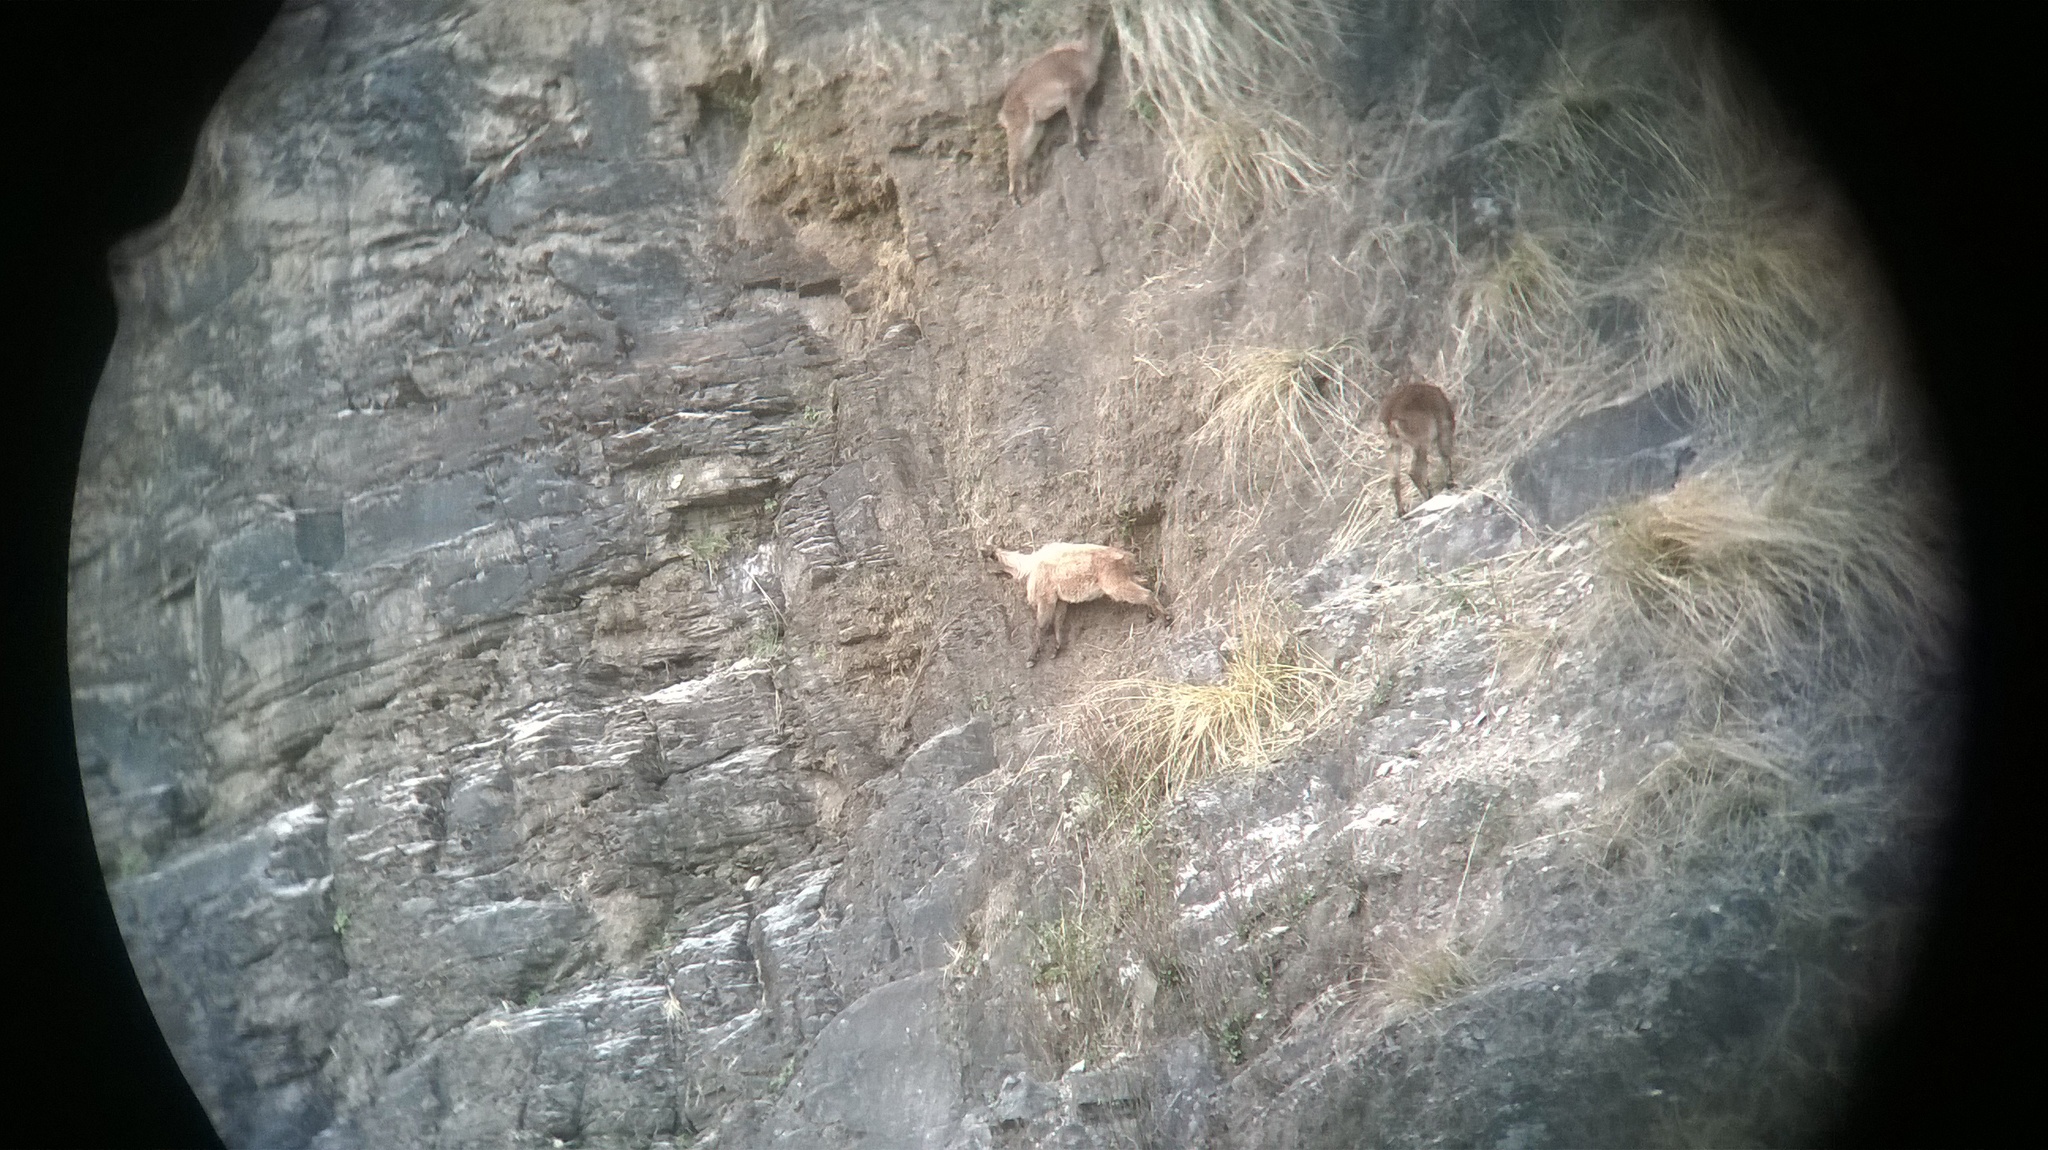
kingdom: Animalia
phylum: Chordata
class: Mammalia
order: Artiodactyla
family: Bovidae
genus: Hemitragus
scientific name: Hemitragus jemlahicus
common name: Himalayan tahr
